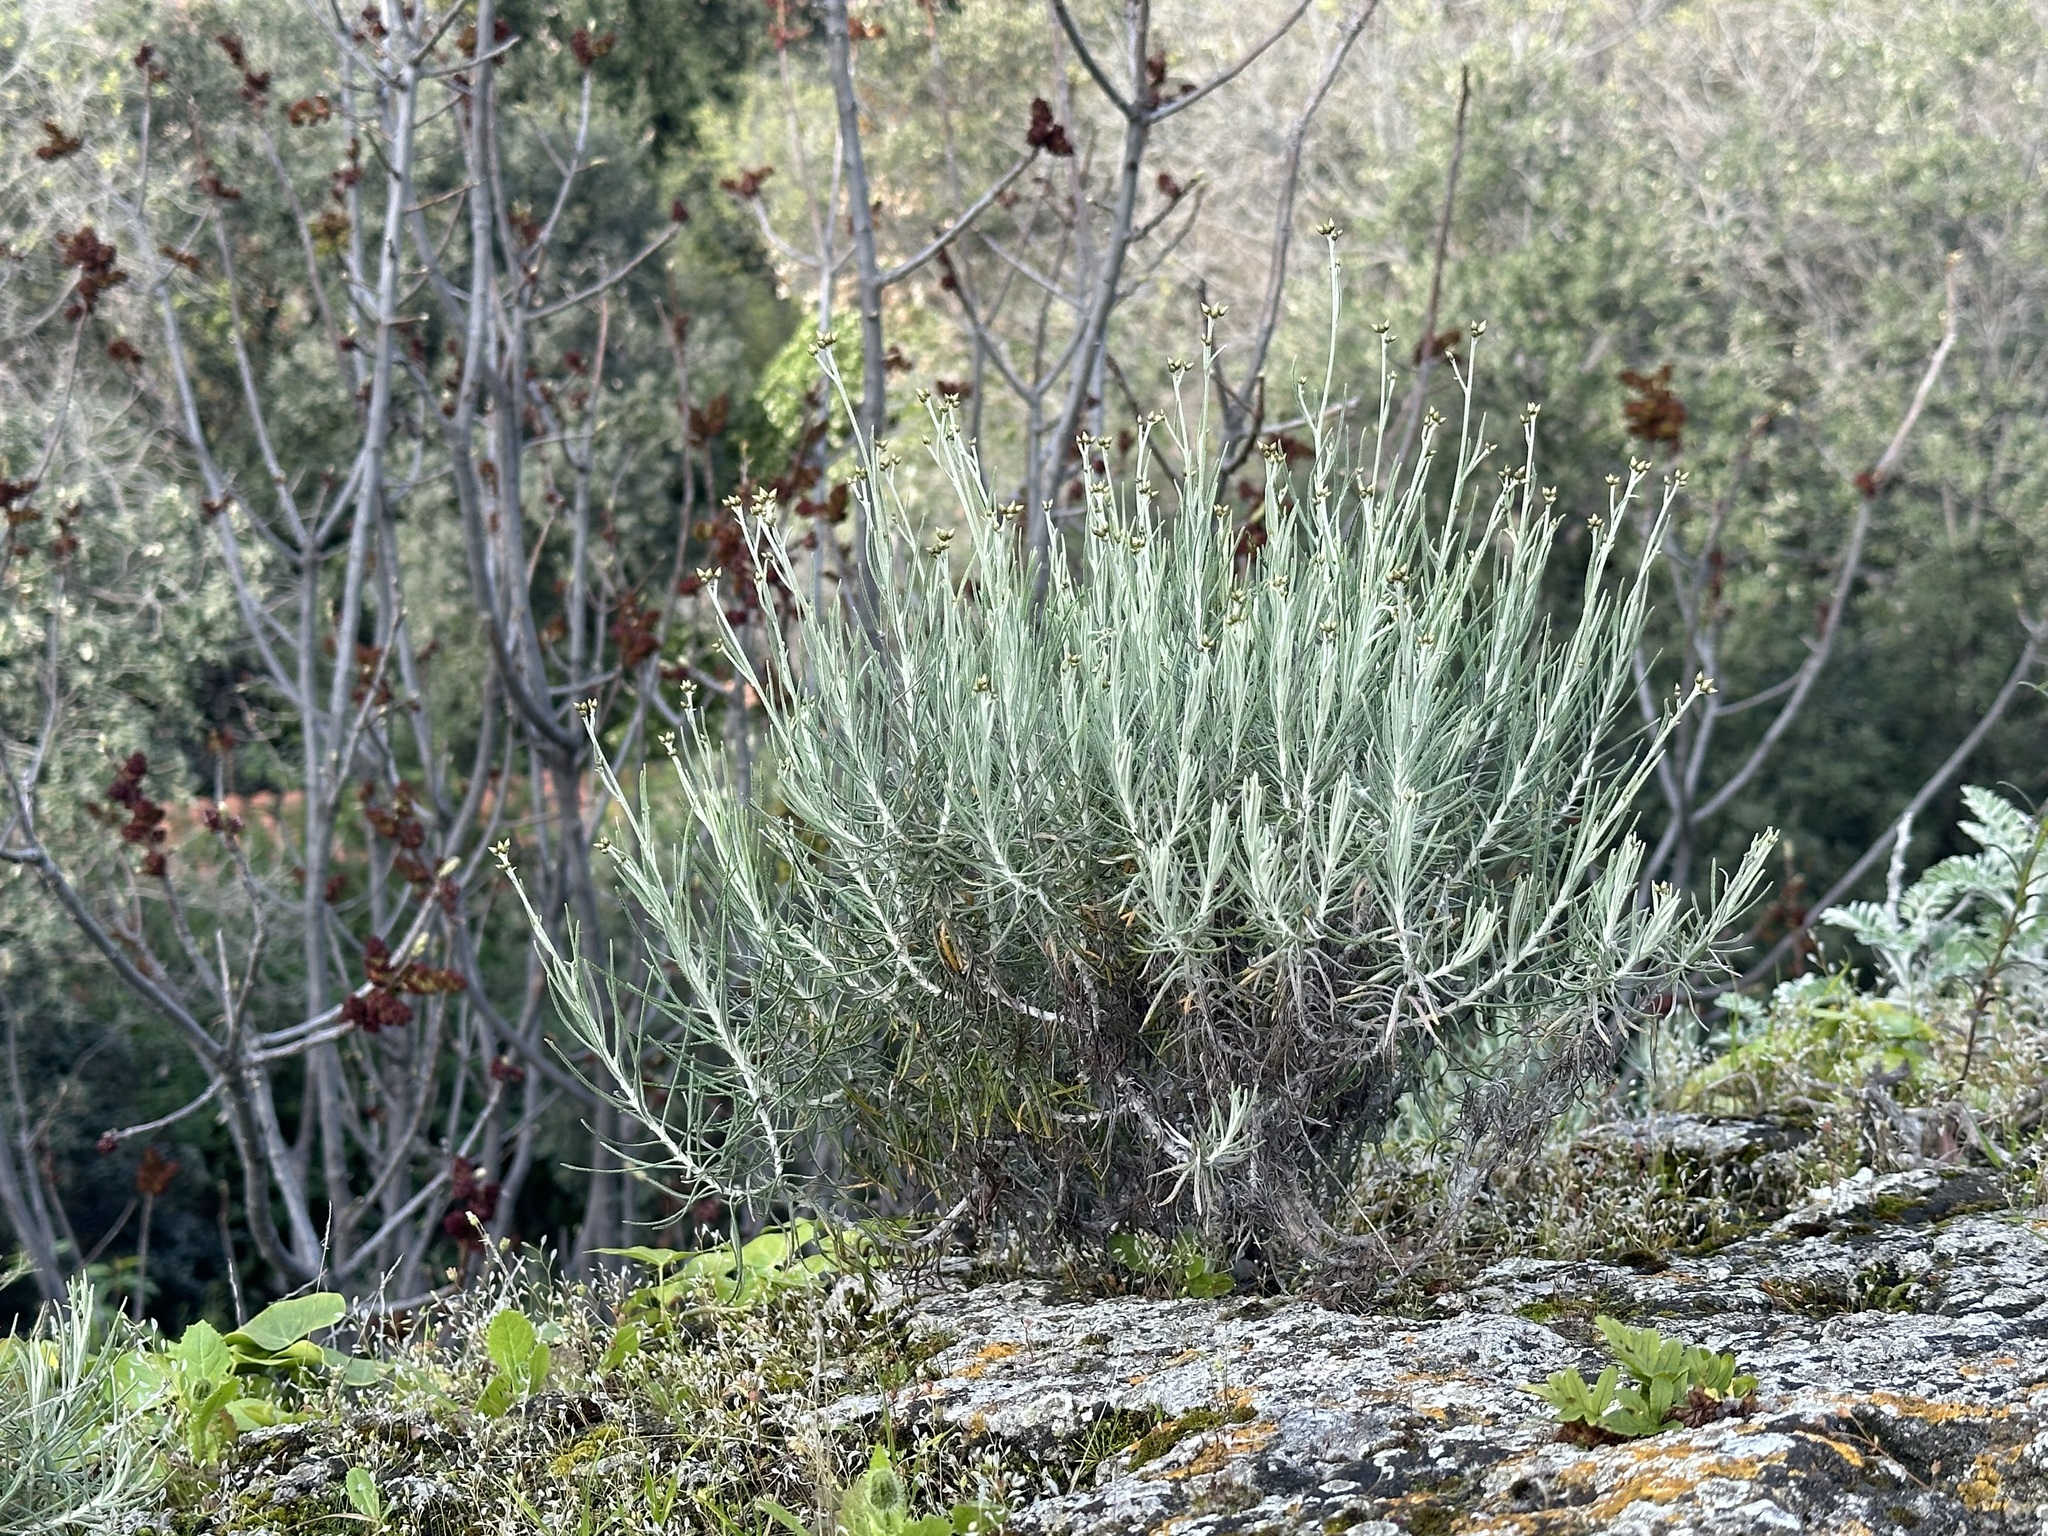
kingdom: Plantae
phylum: Tracheophyta
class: Magnoliopsida
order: Asterales
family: Asteraceae
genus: Phagnalon
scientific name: Phagnalon sordidum
